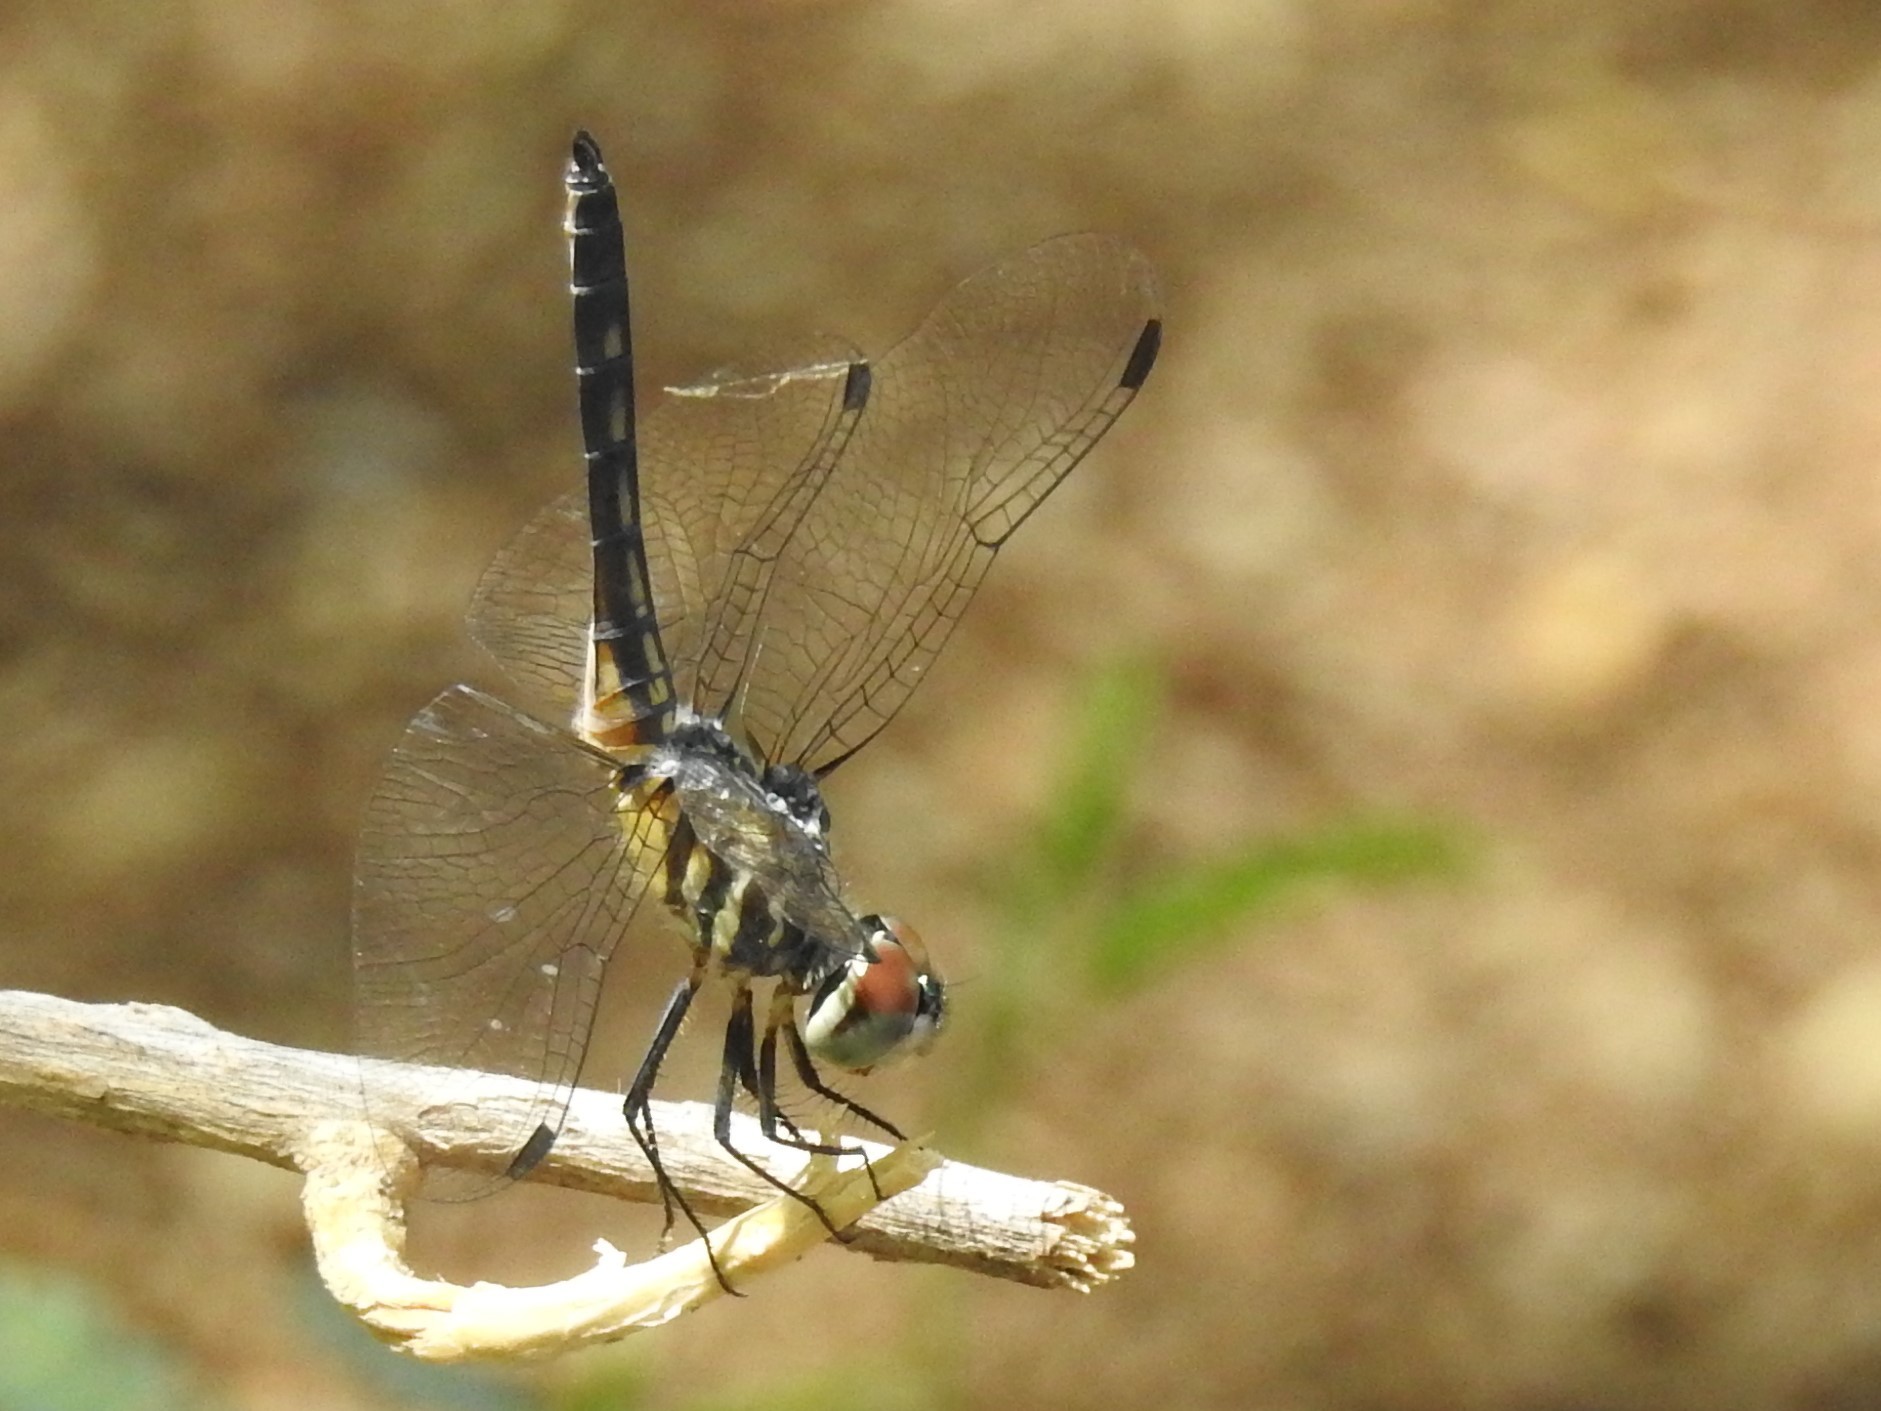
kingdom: Animalia
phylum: Arthropoda
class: Insecta
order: Odonata
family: Libellulidae
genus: Pachydiplax
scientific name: Pachydiplax longipennis
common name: Blue dasher
